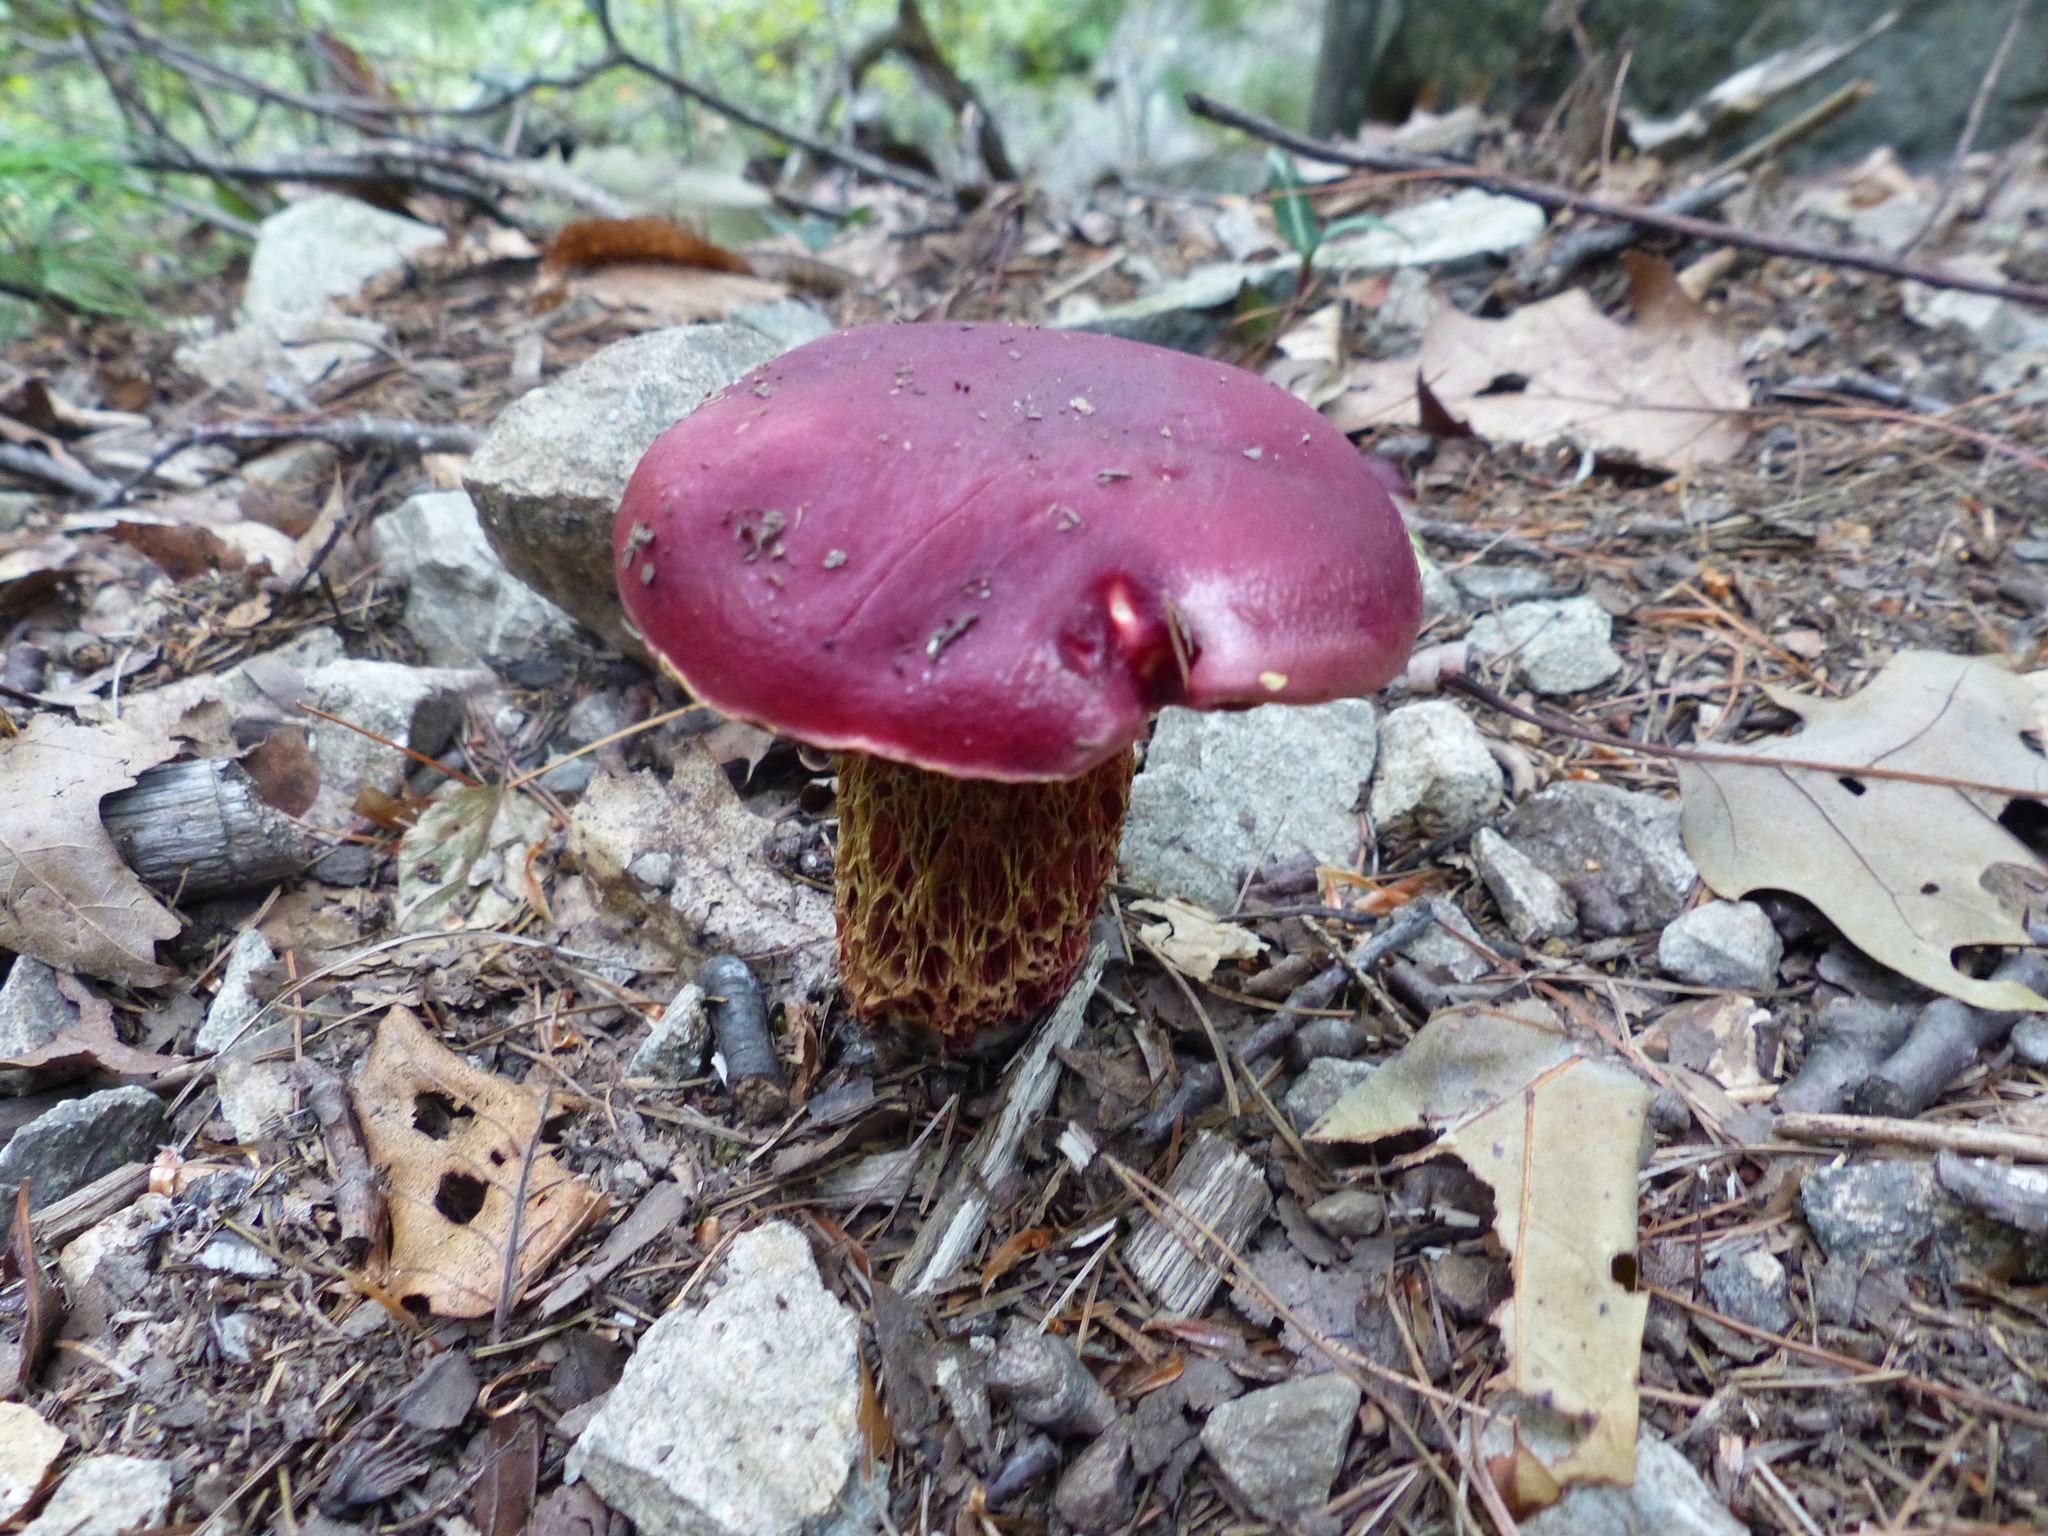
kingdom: Fungi
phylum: Basidiomycota
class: Agaricomycetes
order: Boletales
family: Boletaceae
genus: Butyriboletus
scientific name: Butyriboletus frostii
